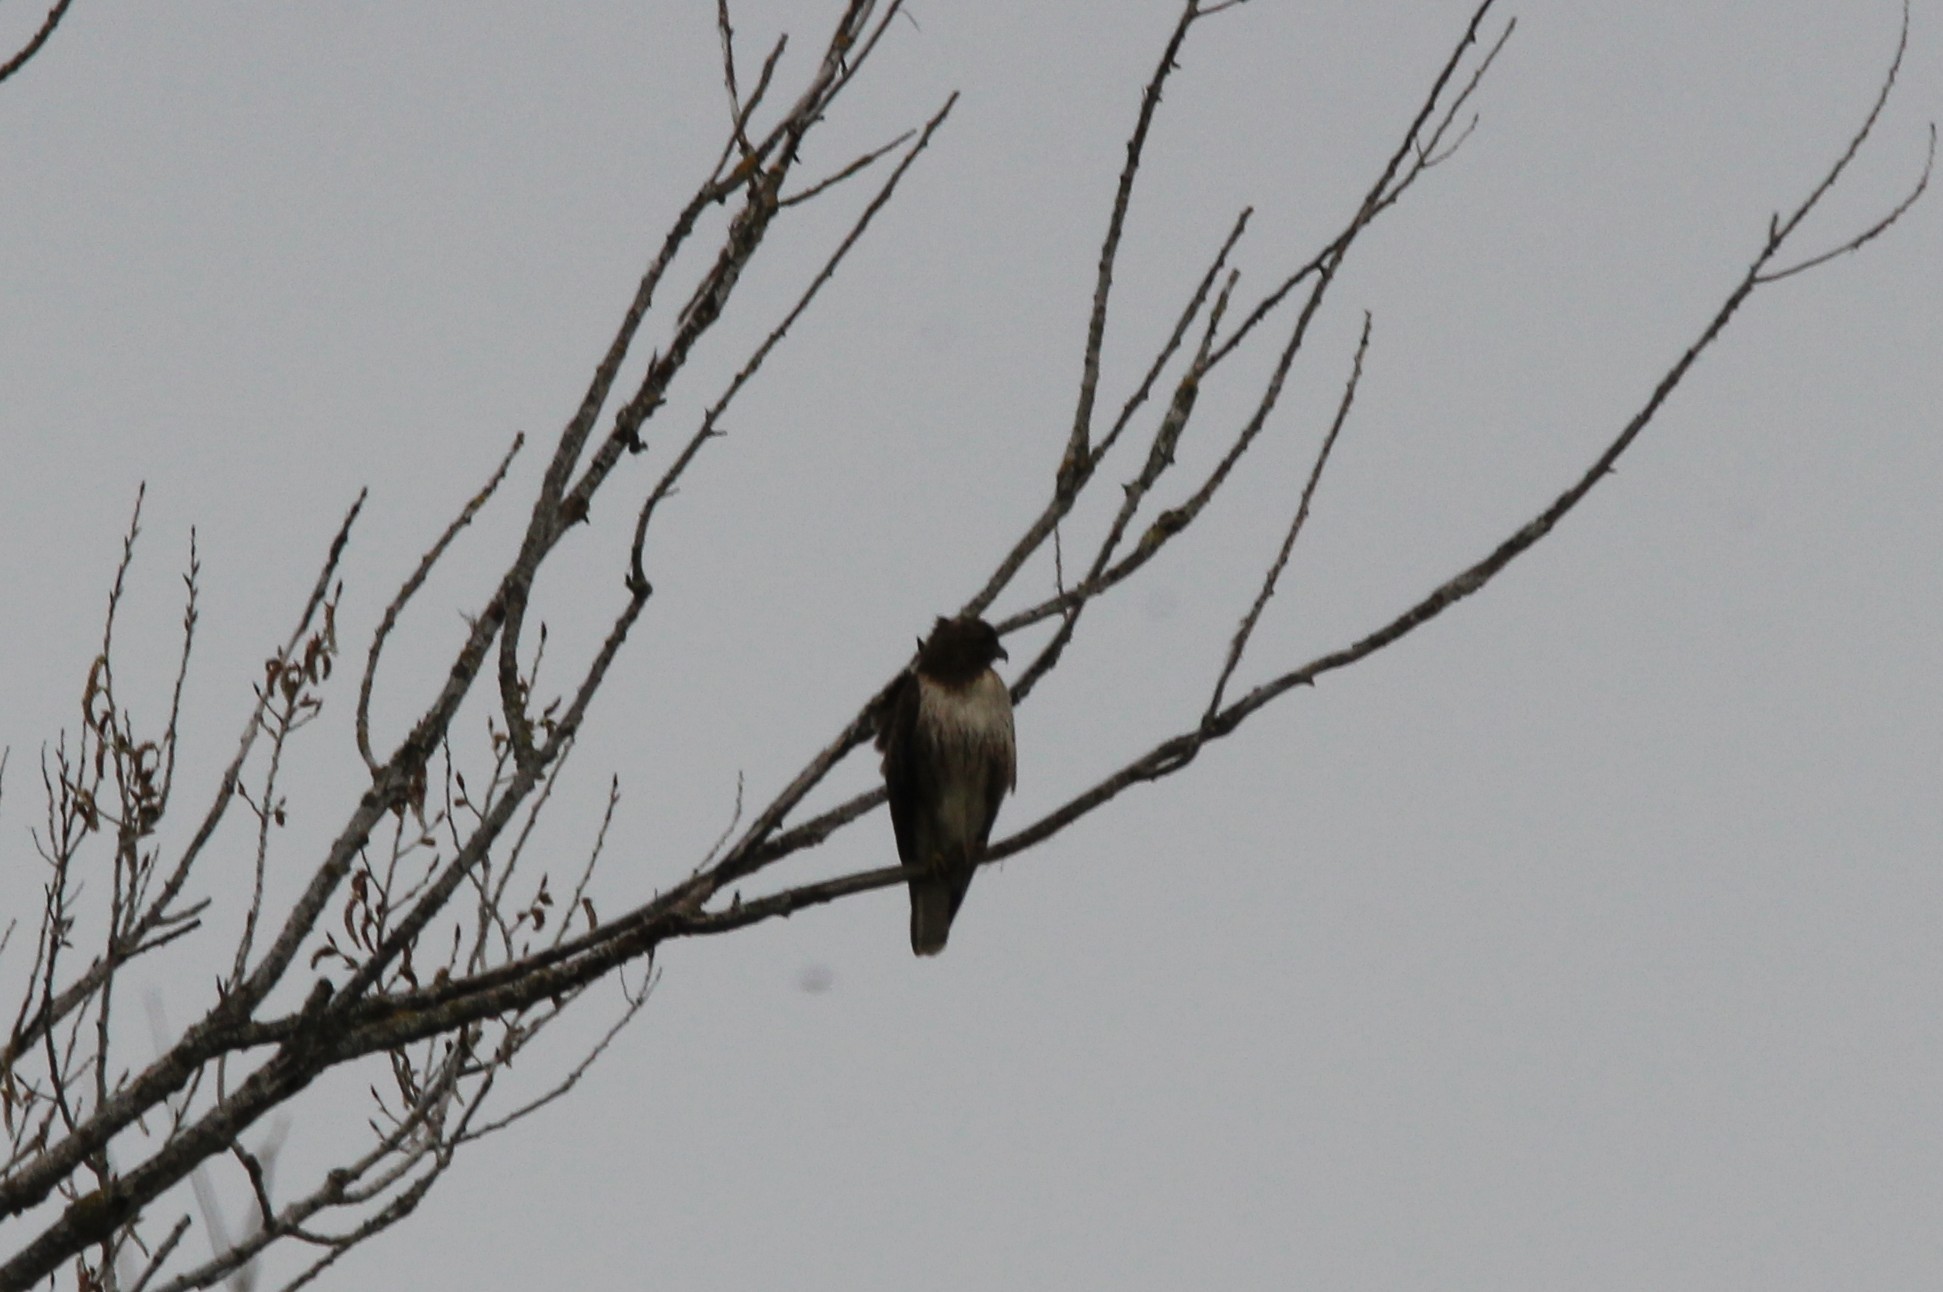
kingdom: Animalia
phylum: Chordata
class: Aves
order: Accipitriformes
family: Accipitridae
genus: Buteo
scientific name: Buteo jamaicensis
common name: Red-tailed hawk
